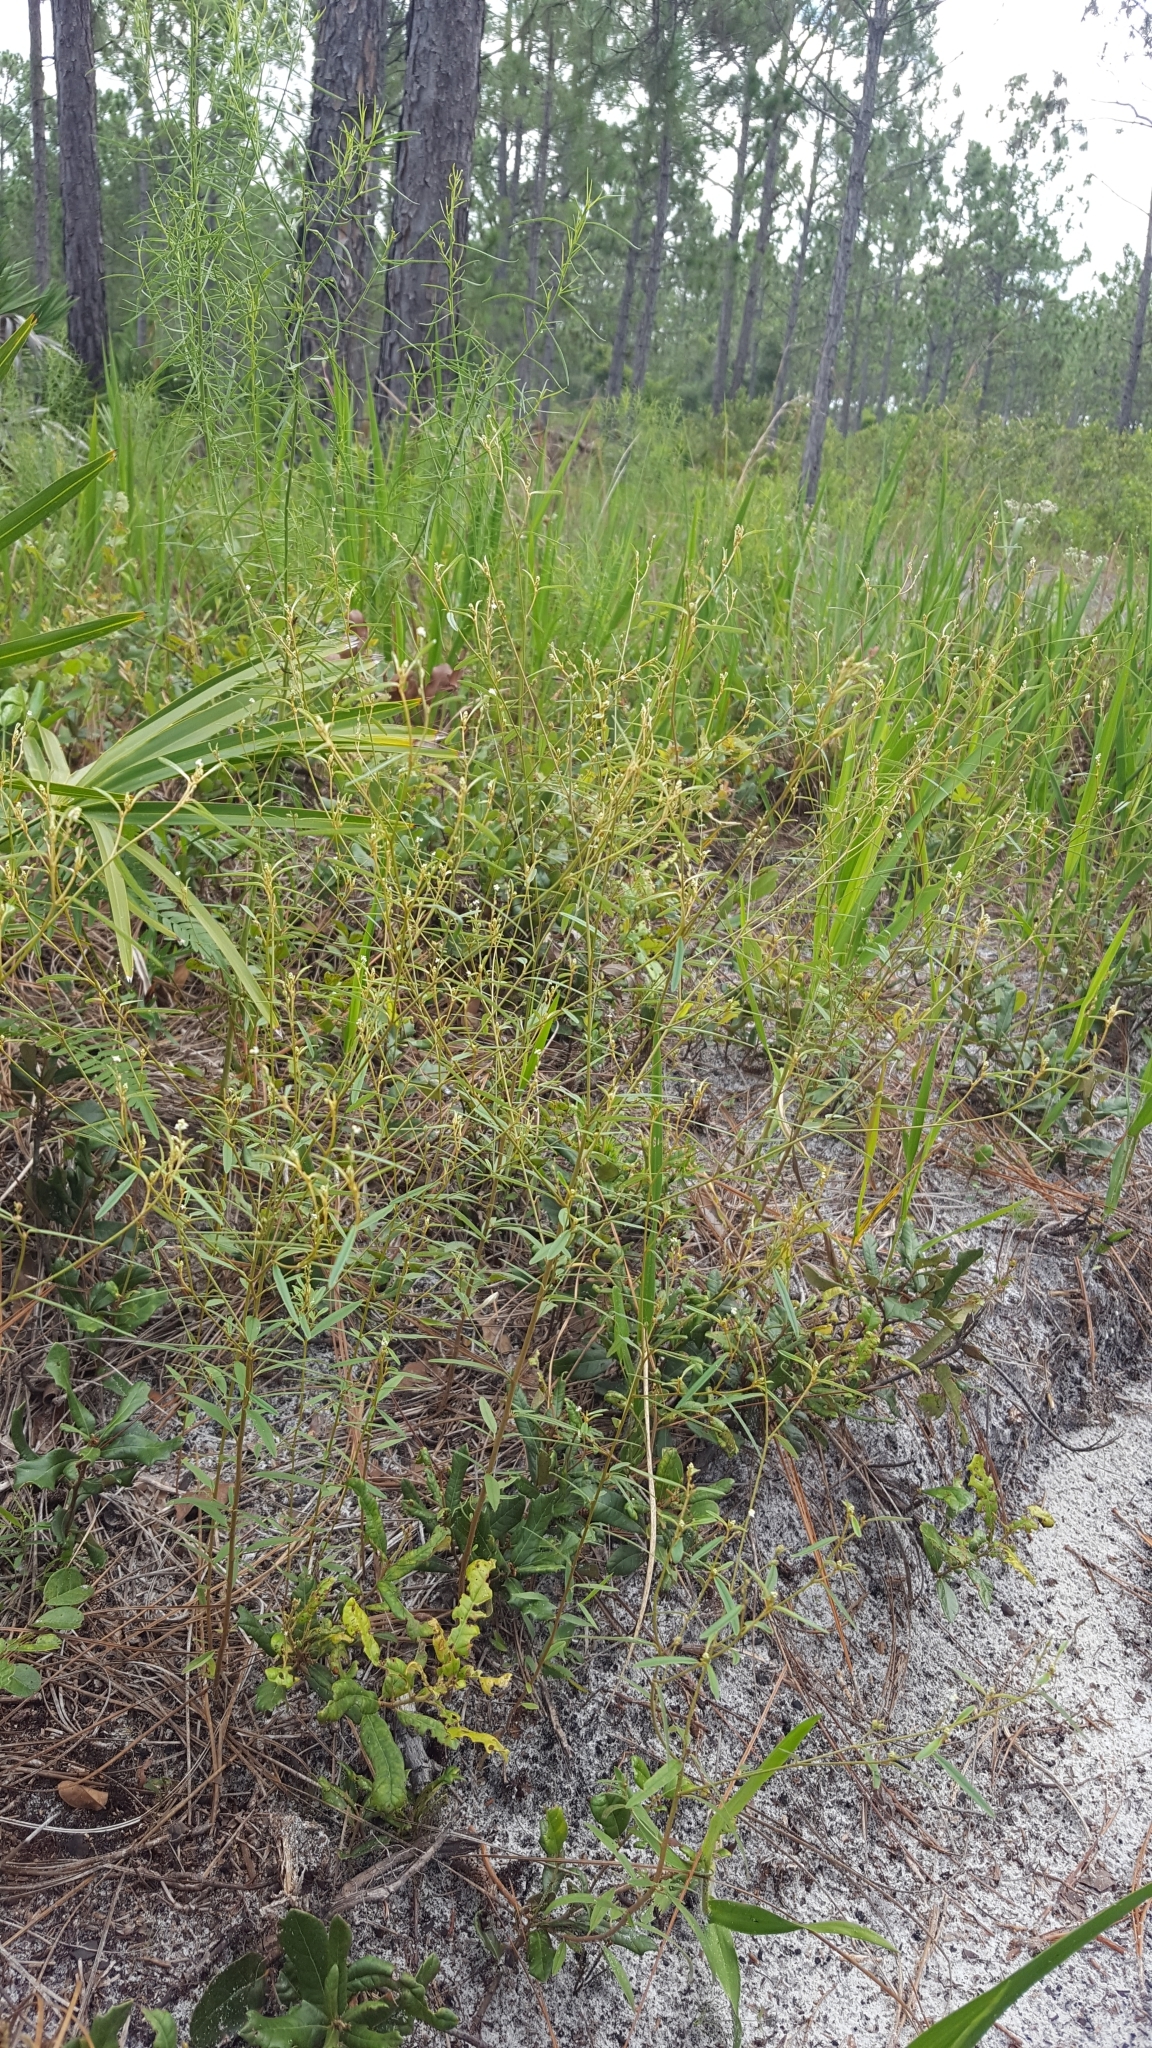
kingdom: Plantae
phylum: Tracheophyta
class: Magnoliopsida
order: Malpighiales
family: Euphorbiaceae
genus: Croton
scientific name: Croton michauxii
